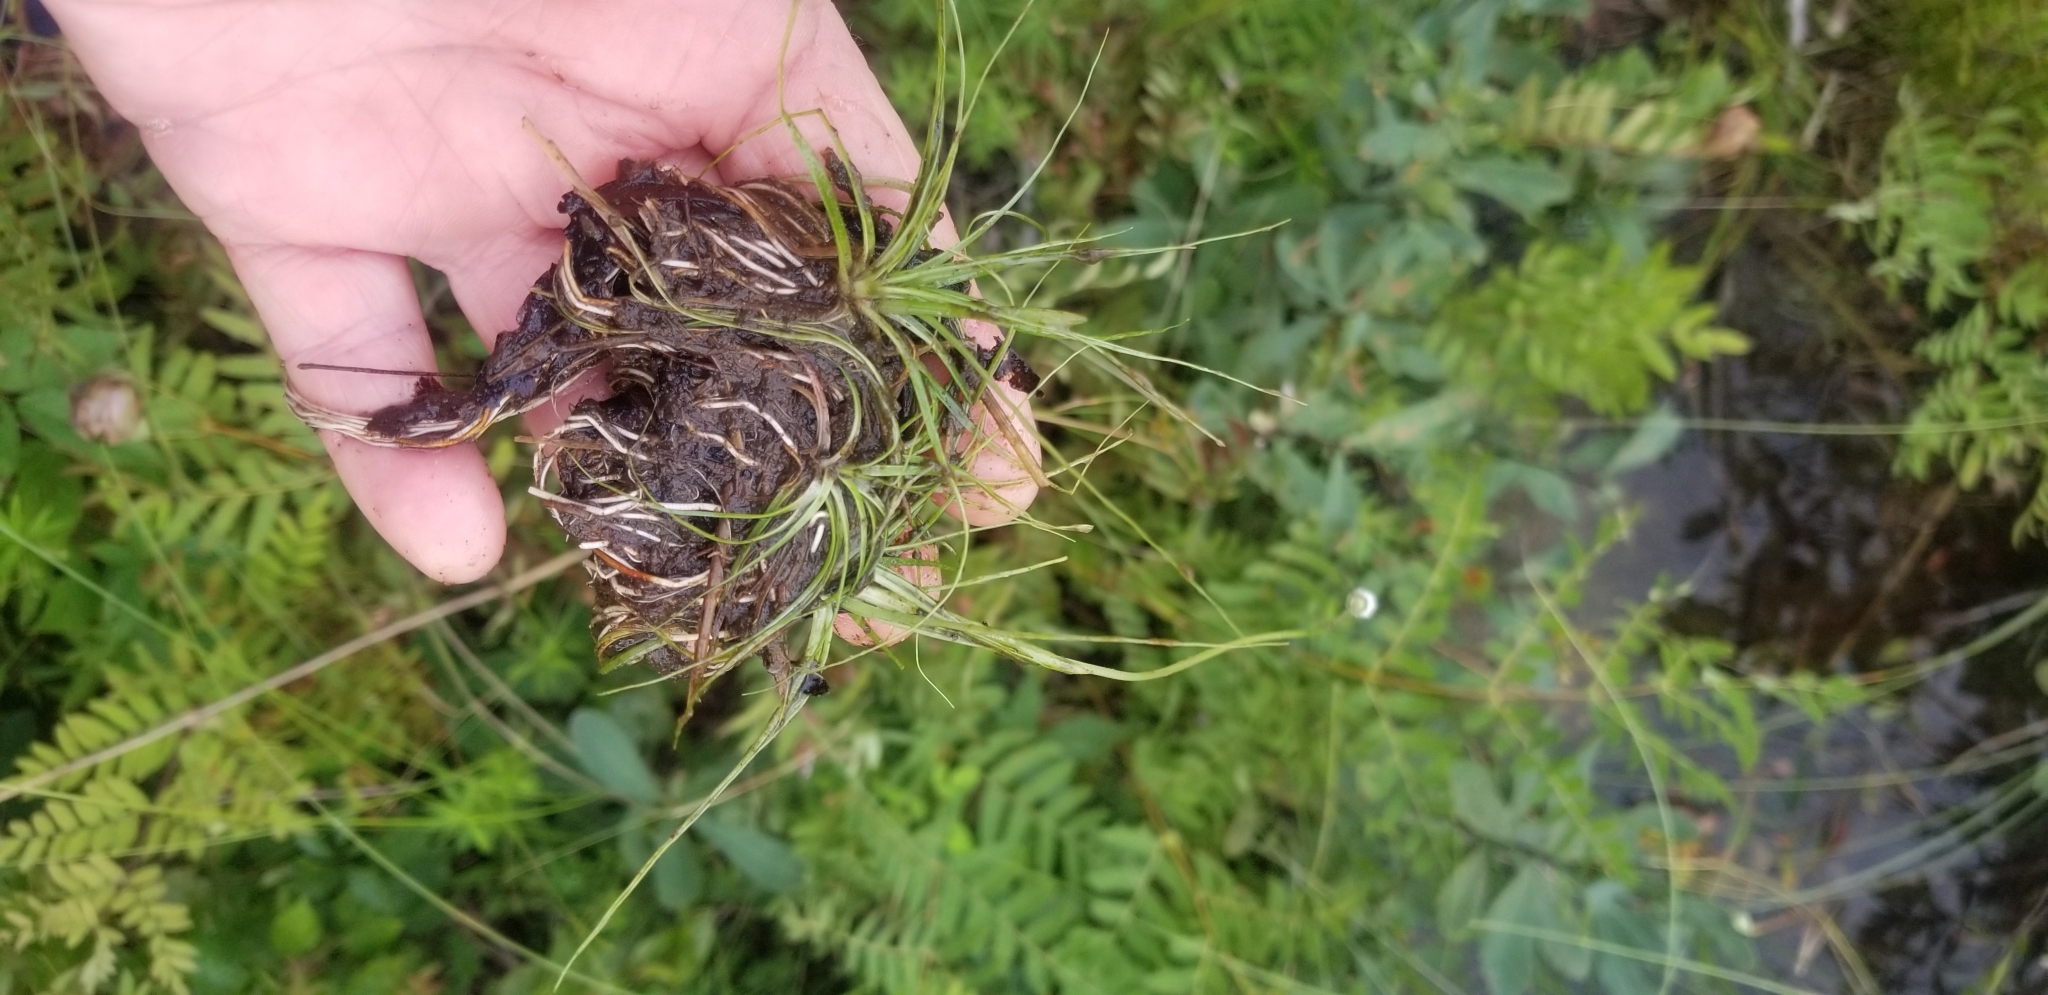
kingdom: Plantae
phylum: Tracheophyta
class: Liliopsida
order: Poales
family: Eriocaulaceae
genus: Eriocaulon
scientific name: Eriocaulon aquaticum
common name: Pipewort
